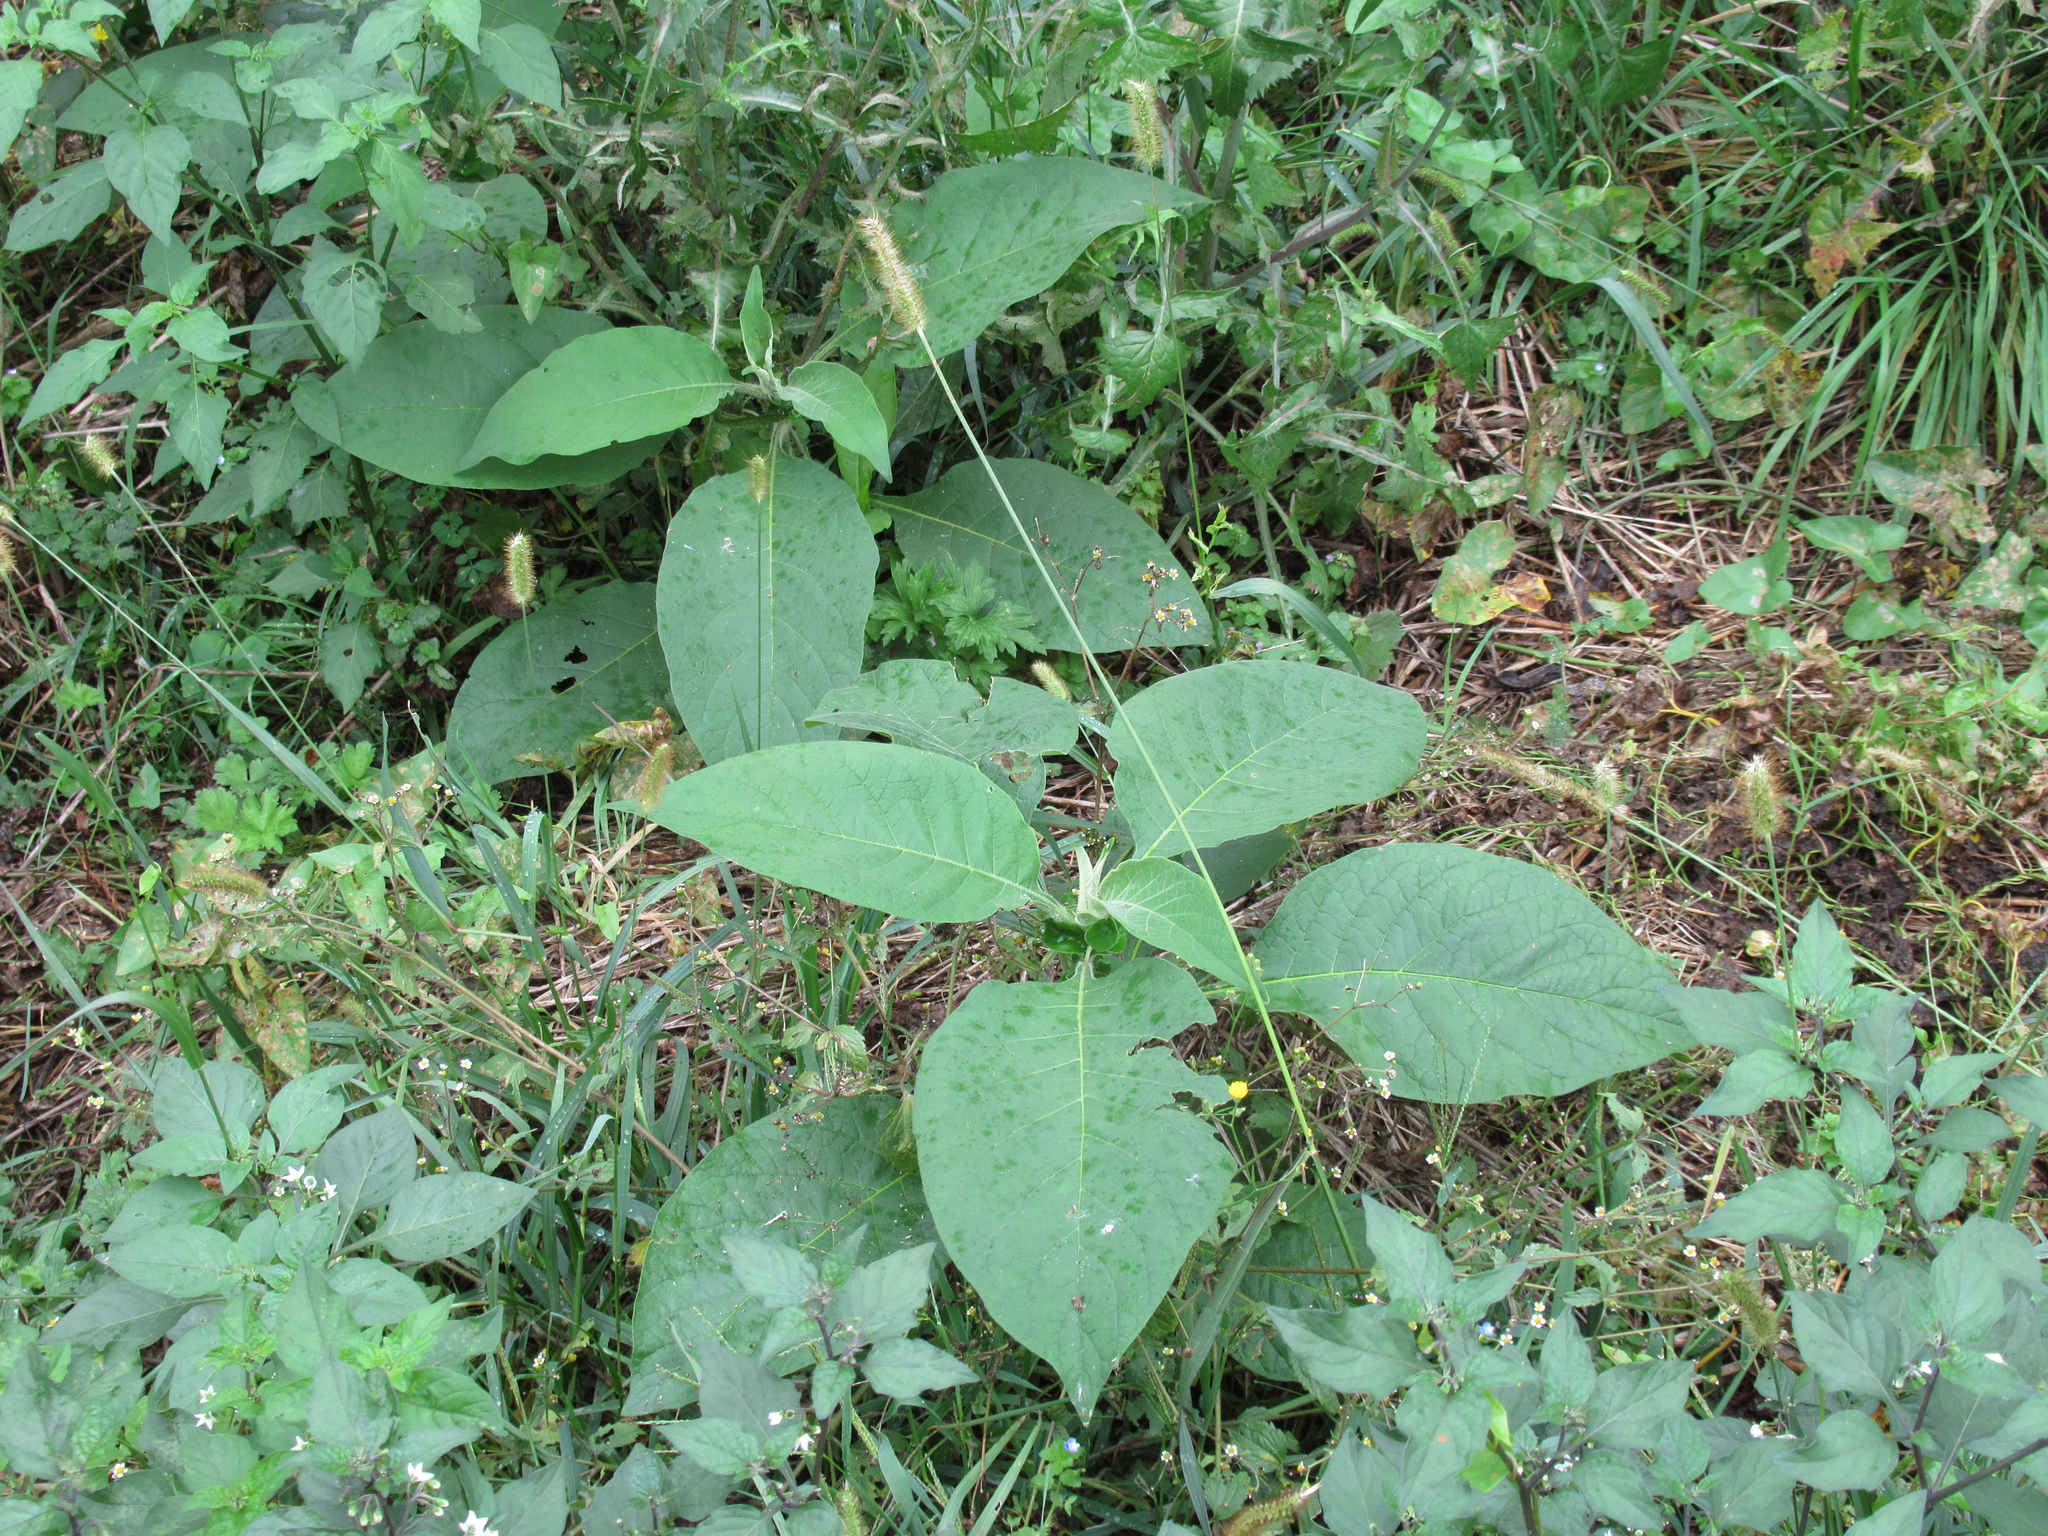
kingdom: Plantae
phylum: Tracheophyta
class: Magnoliopsida
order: Solanales
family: Solanaceae
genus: Solanum
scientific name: Solanum mauritianum
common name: Earleaf nightshade
